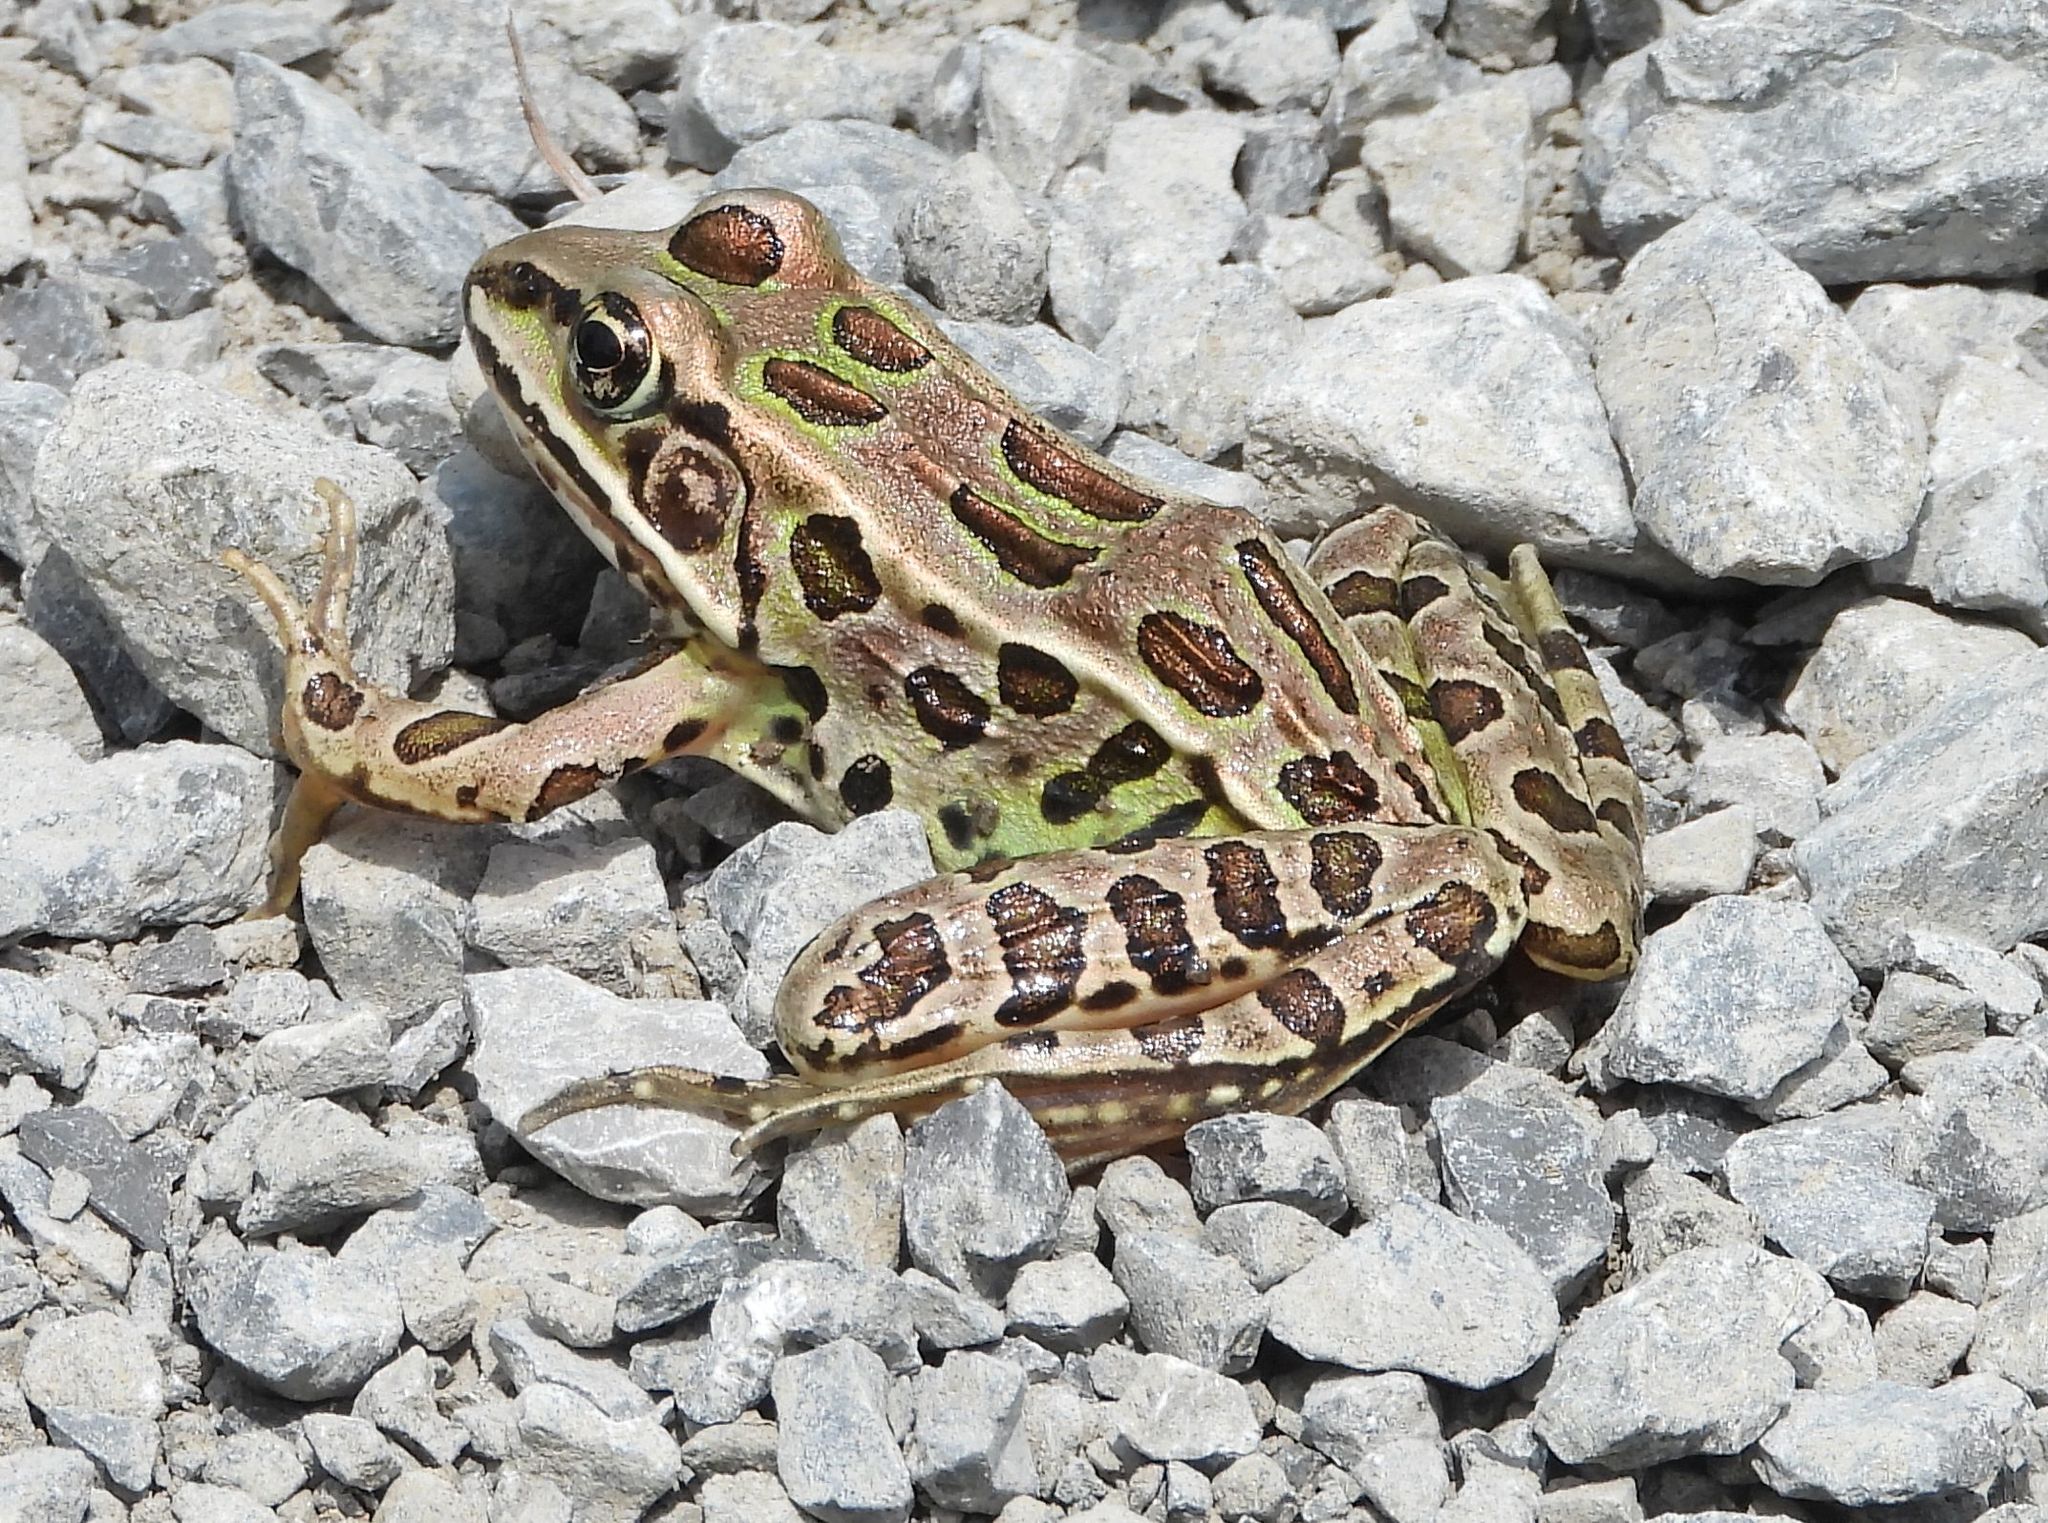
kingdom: Animalia
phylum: Chordata
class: Amphibia
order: Anura
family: Ranidae
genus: Lithobates
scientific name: Lithobates pipiens
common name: Northern leopard frog
